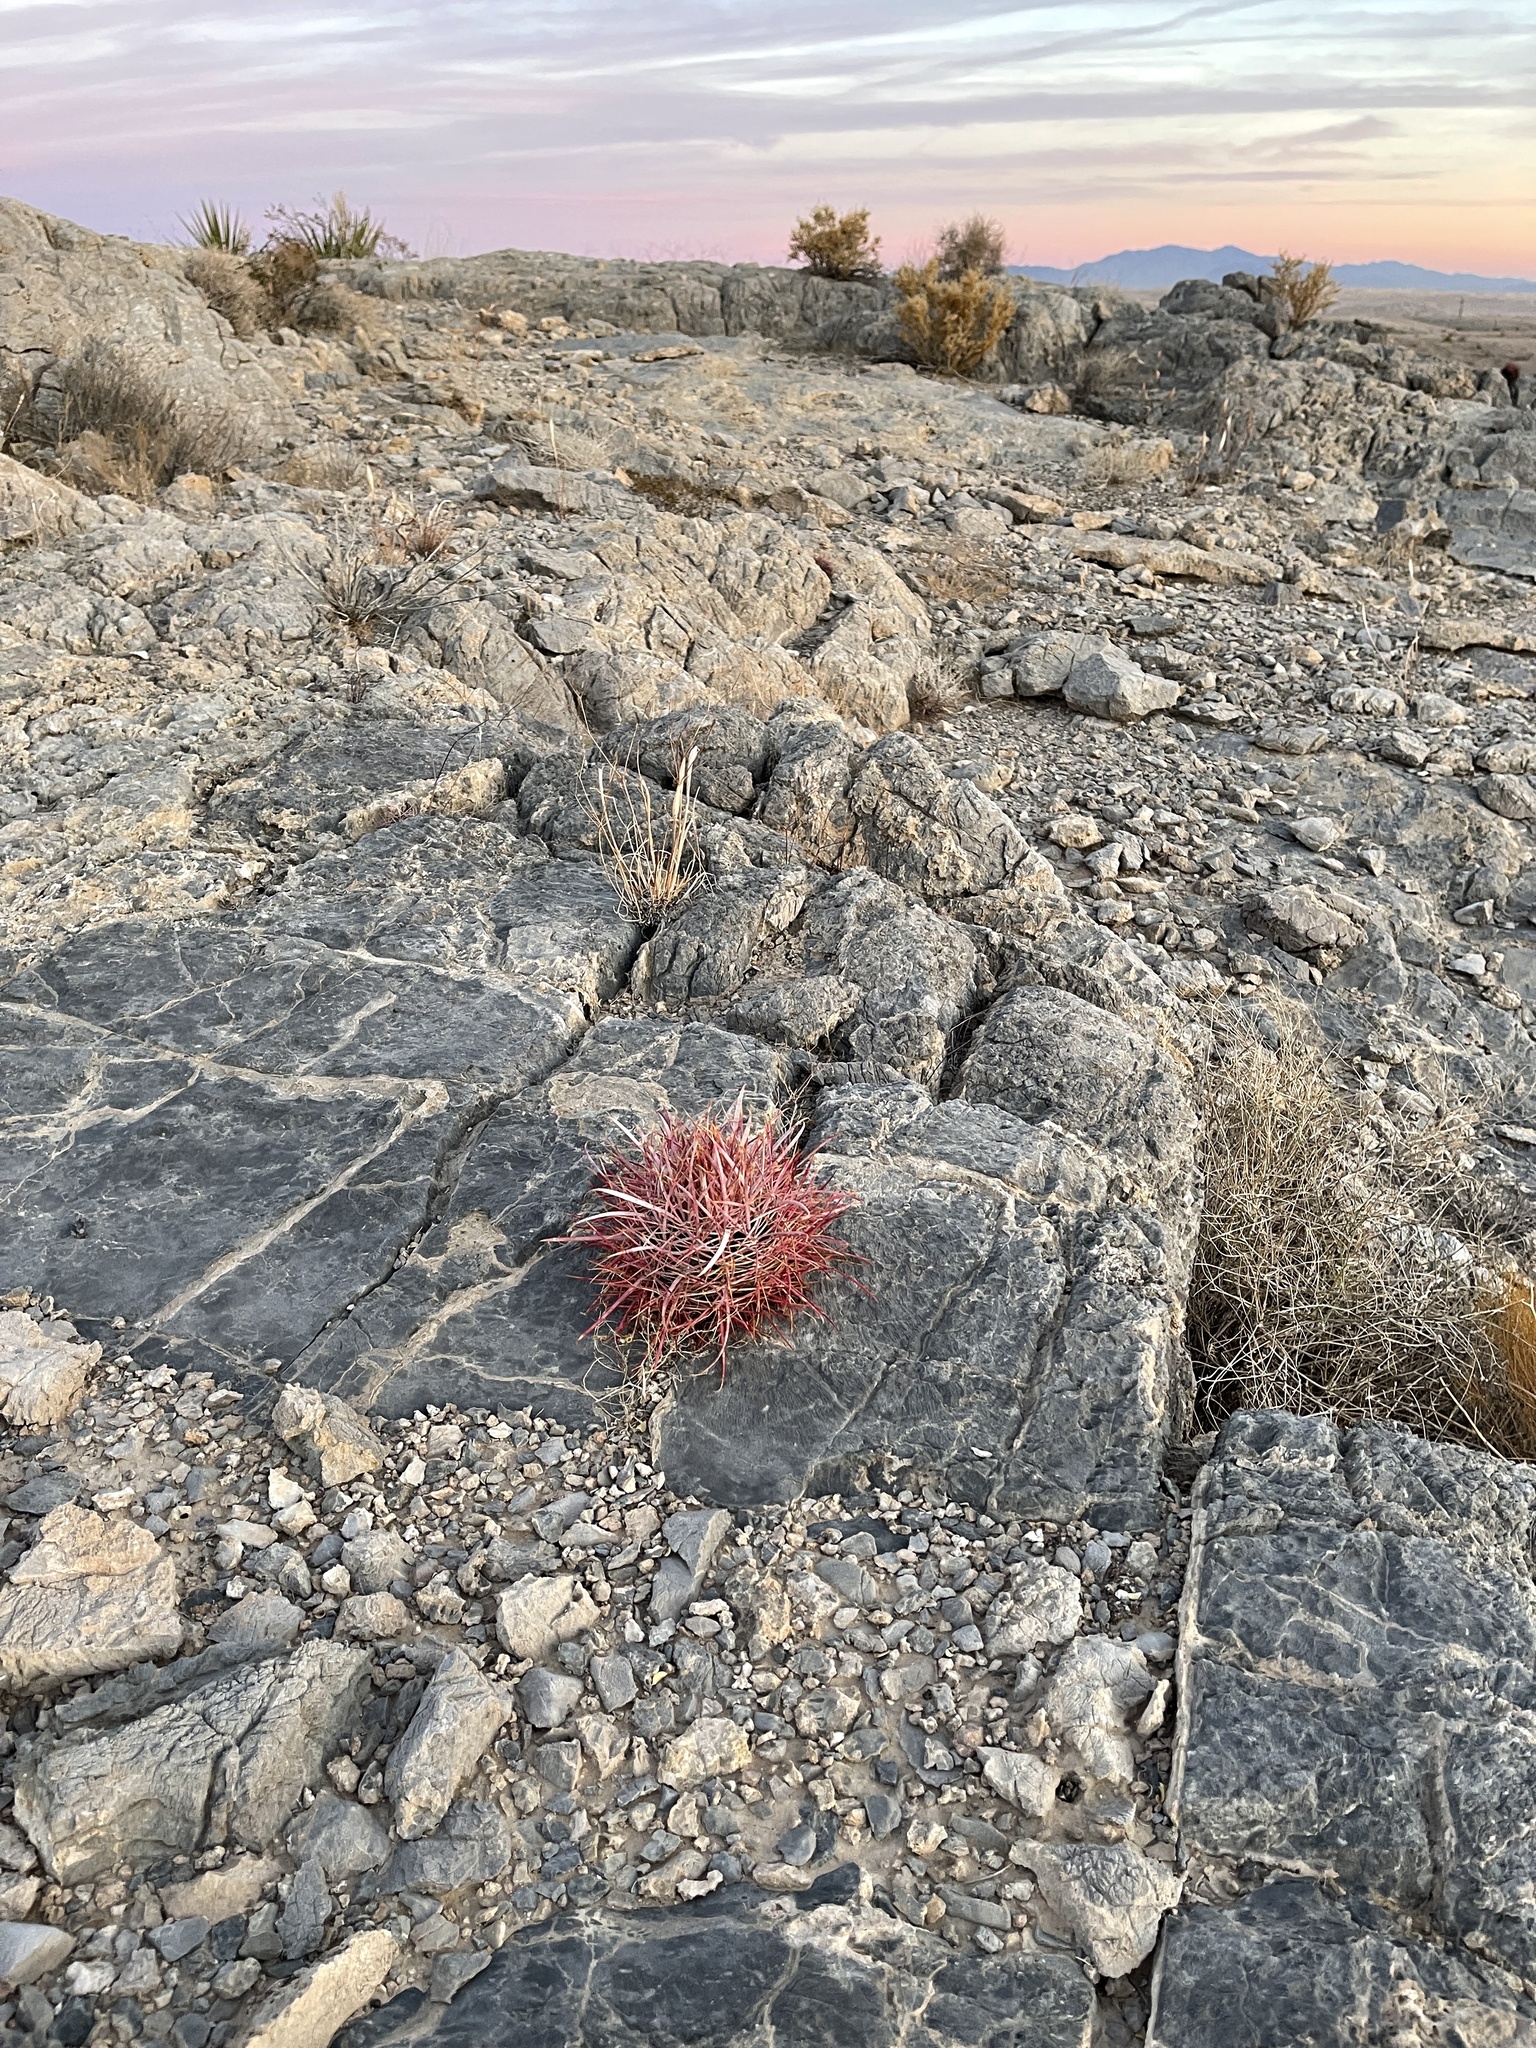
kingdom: Plantae
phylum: Tracheophyta
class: Magnoliopsida
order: Caryophyllales
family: Cactaceae
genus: Ferocactus
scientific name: Ferocactus cylindraceus
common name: California barrel cactus
